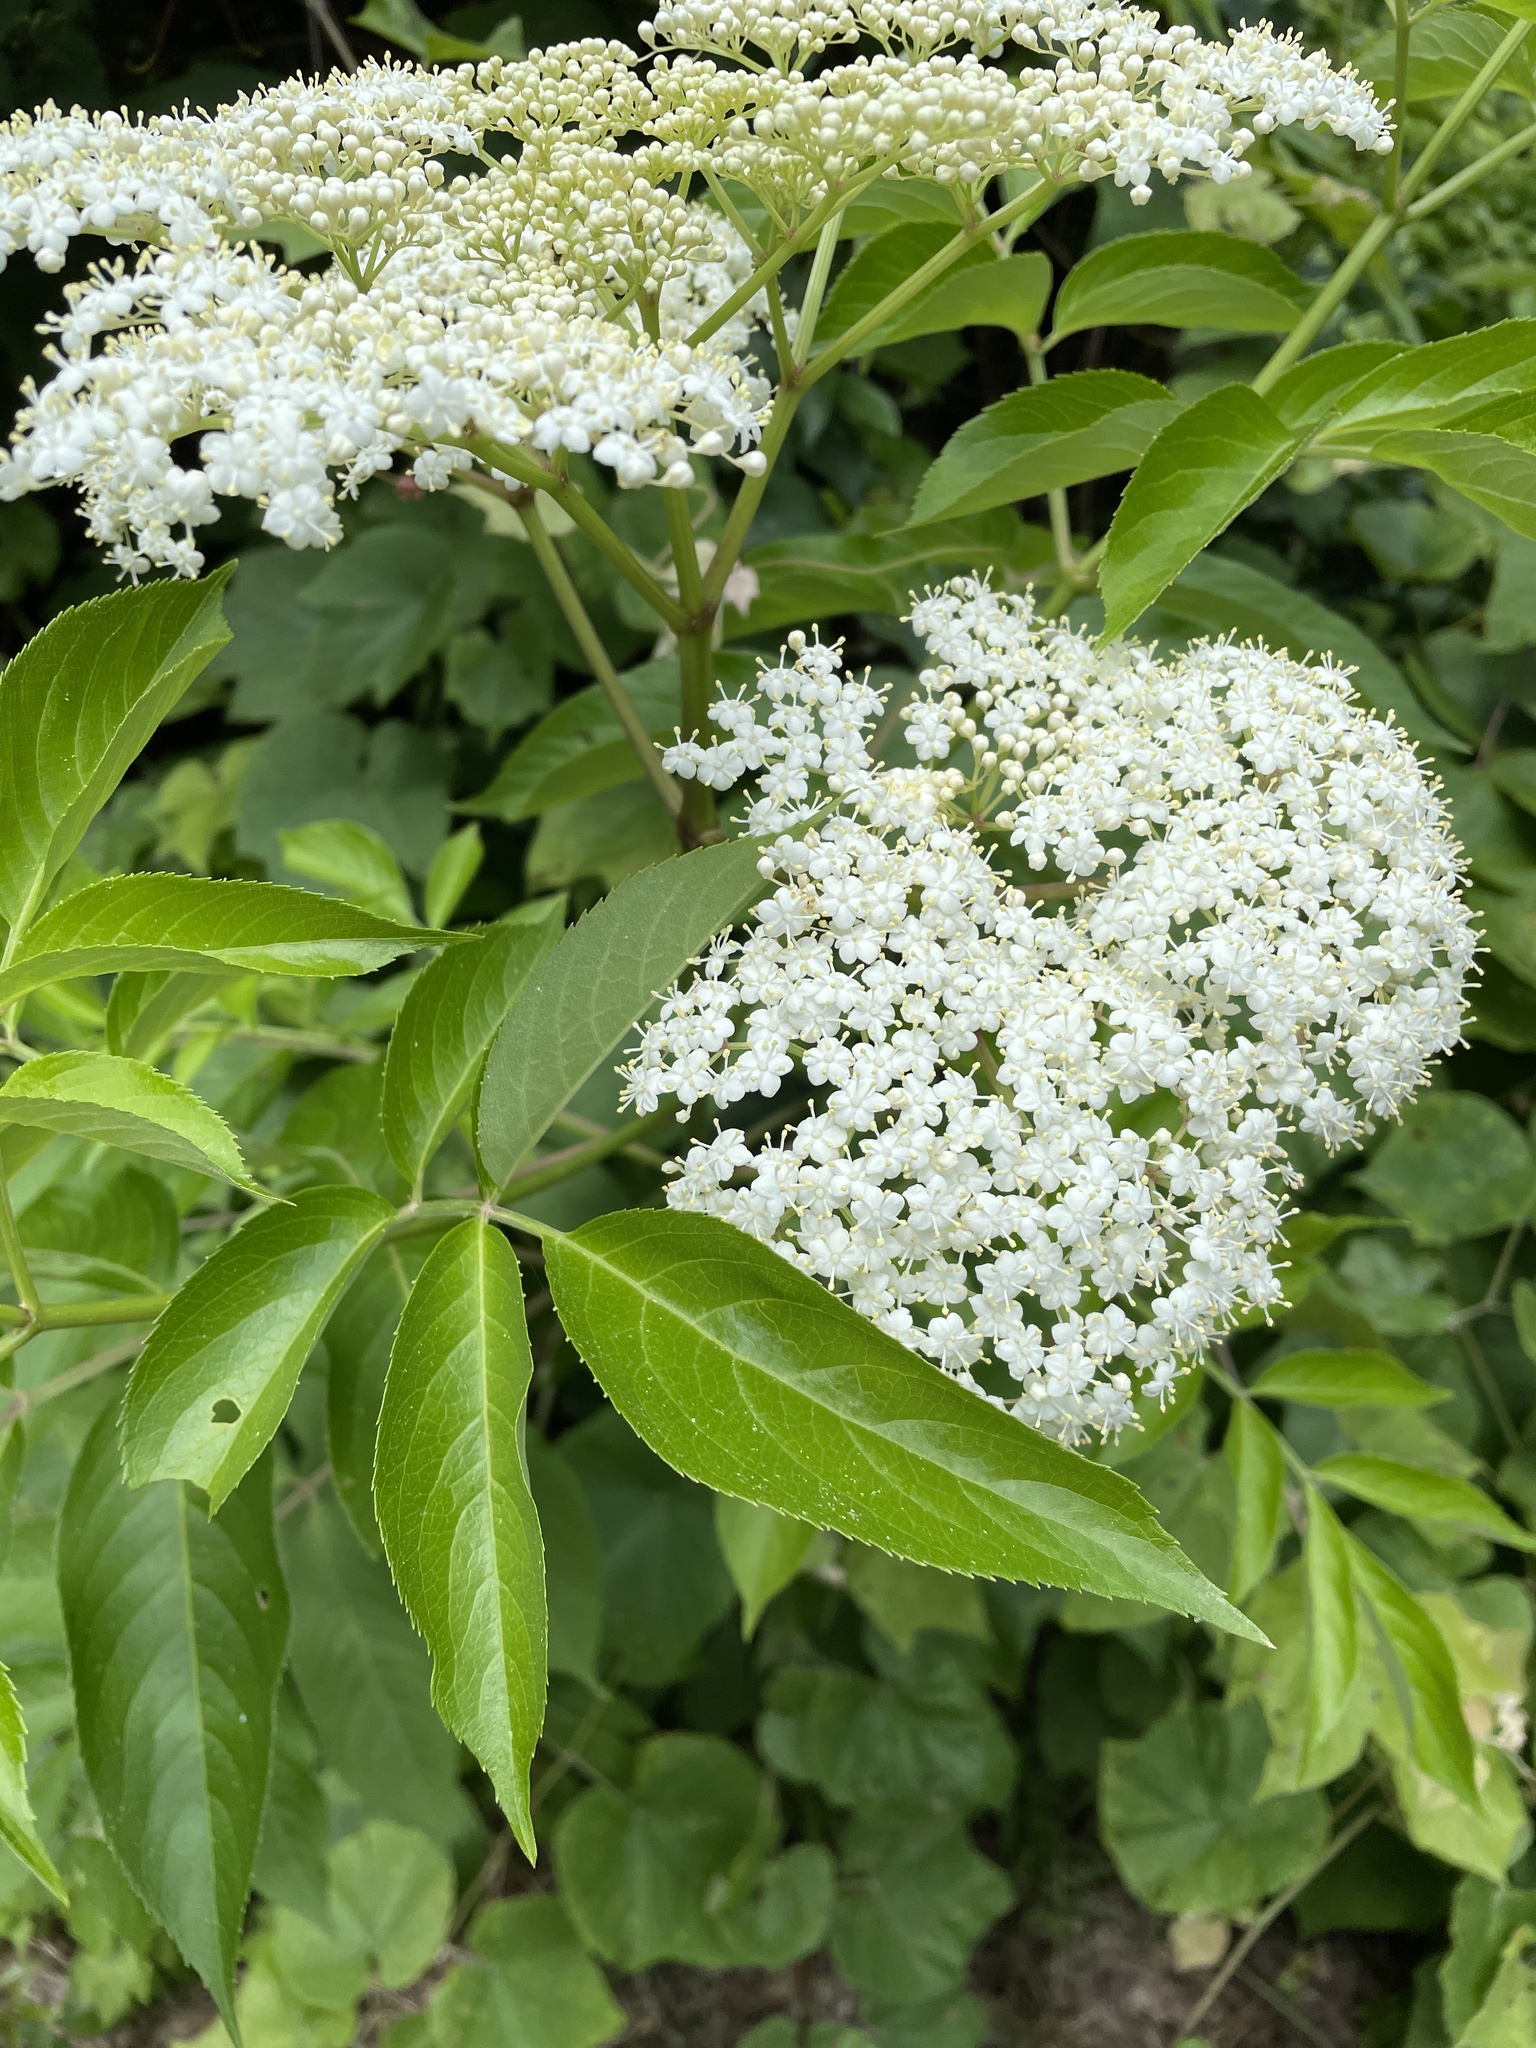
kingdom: Plantae
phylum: Tracheophyta
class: Magnoliopsida
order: Dipsacales
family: Viburnaceae
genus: Sambucus
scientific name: Sambucus canadensis
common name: American elder
